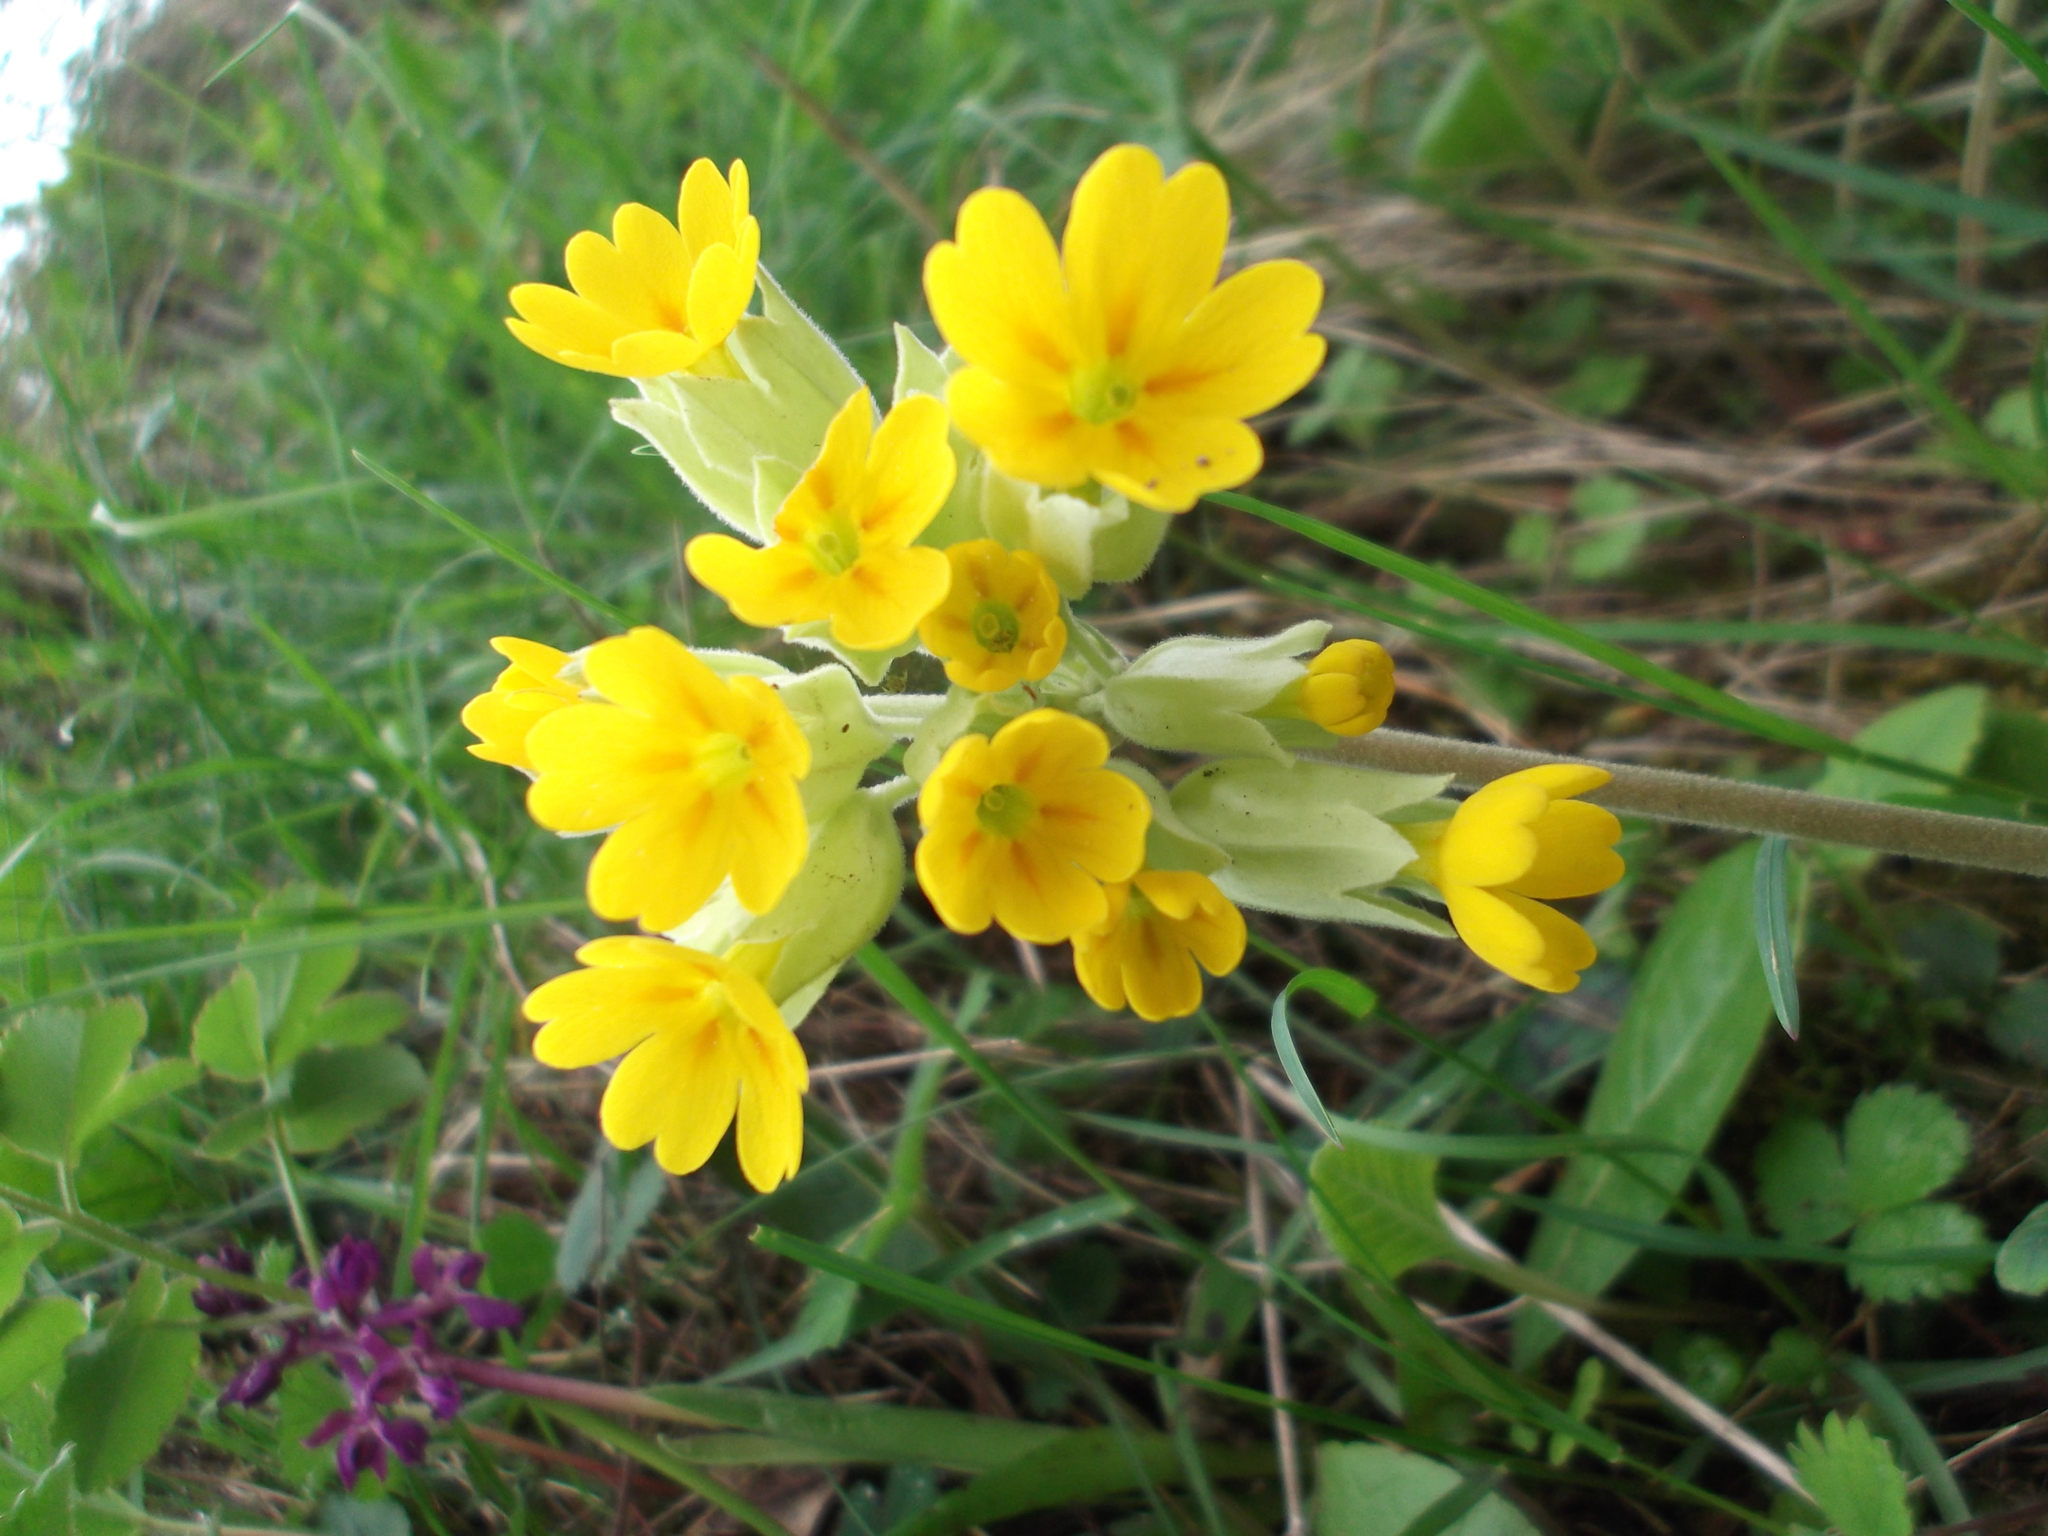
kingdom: Plantae
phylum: Tracheophyta
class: Magnoliopsida
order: Ericales
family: Primulaceae
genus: Primula
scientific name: Primula veris
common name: Cowslip
